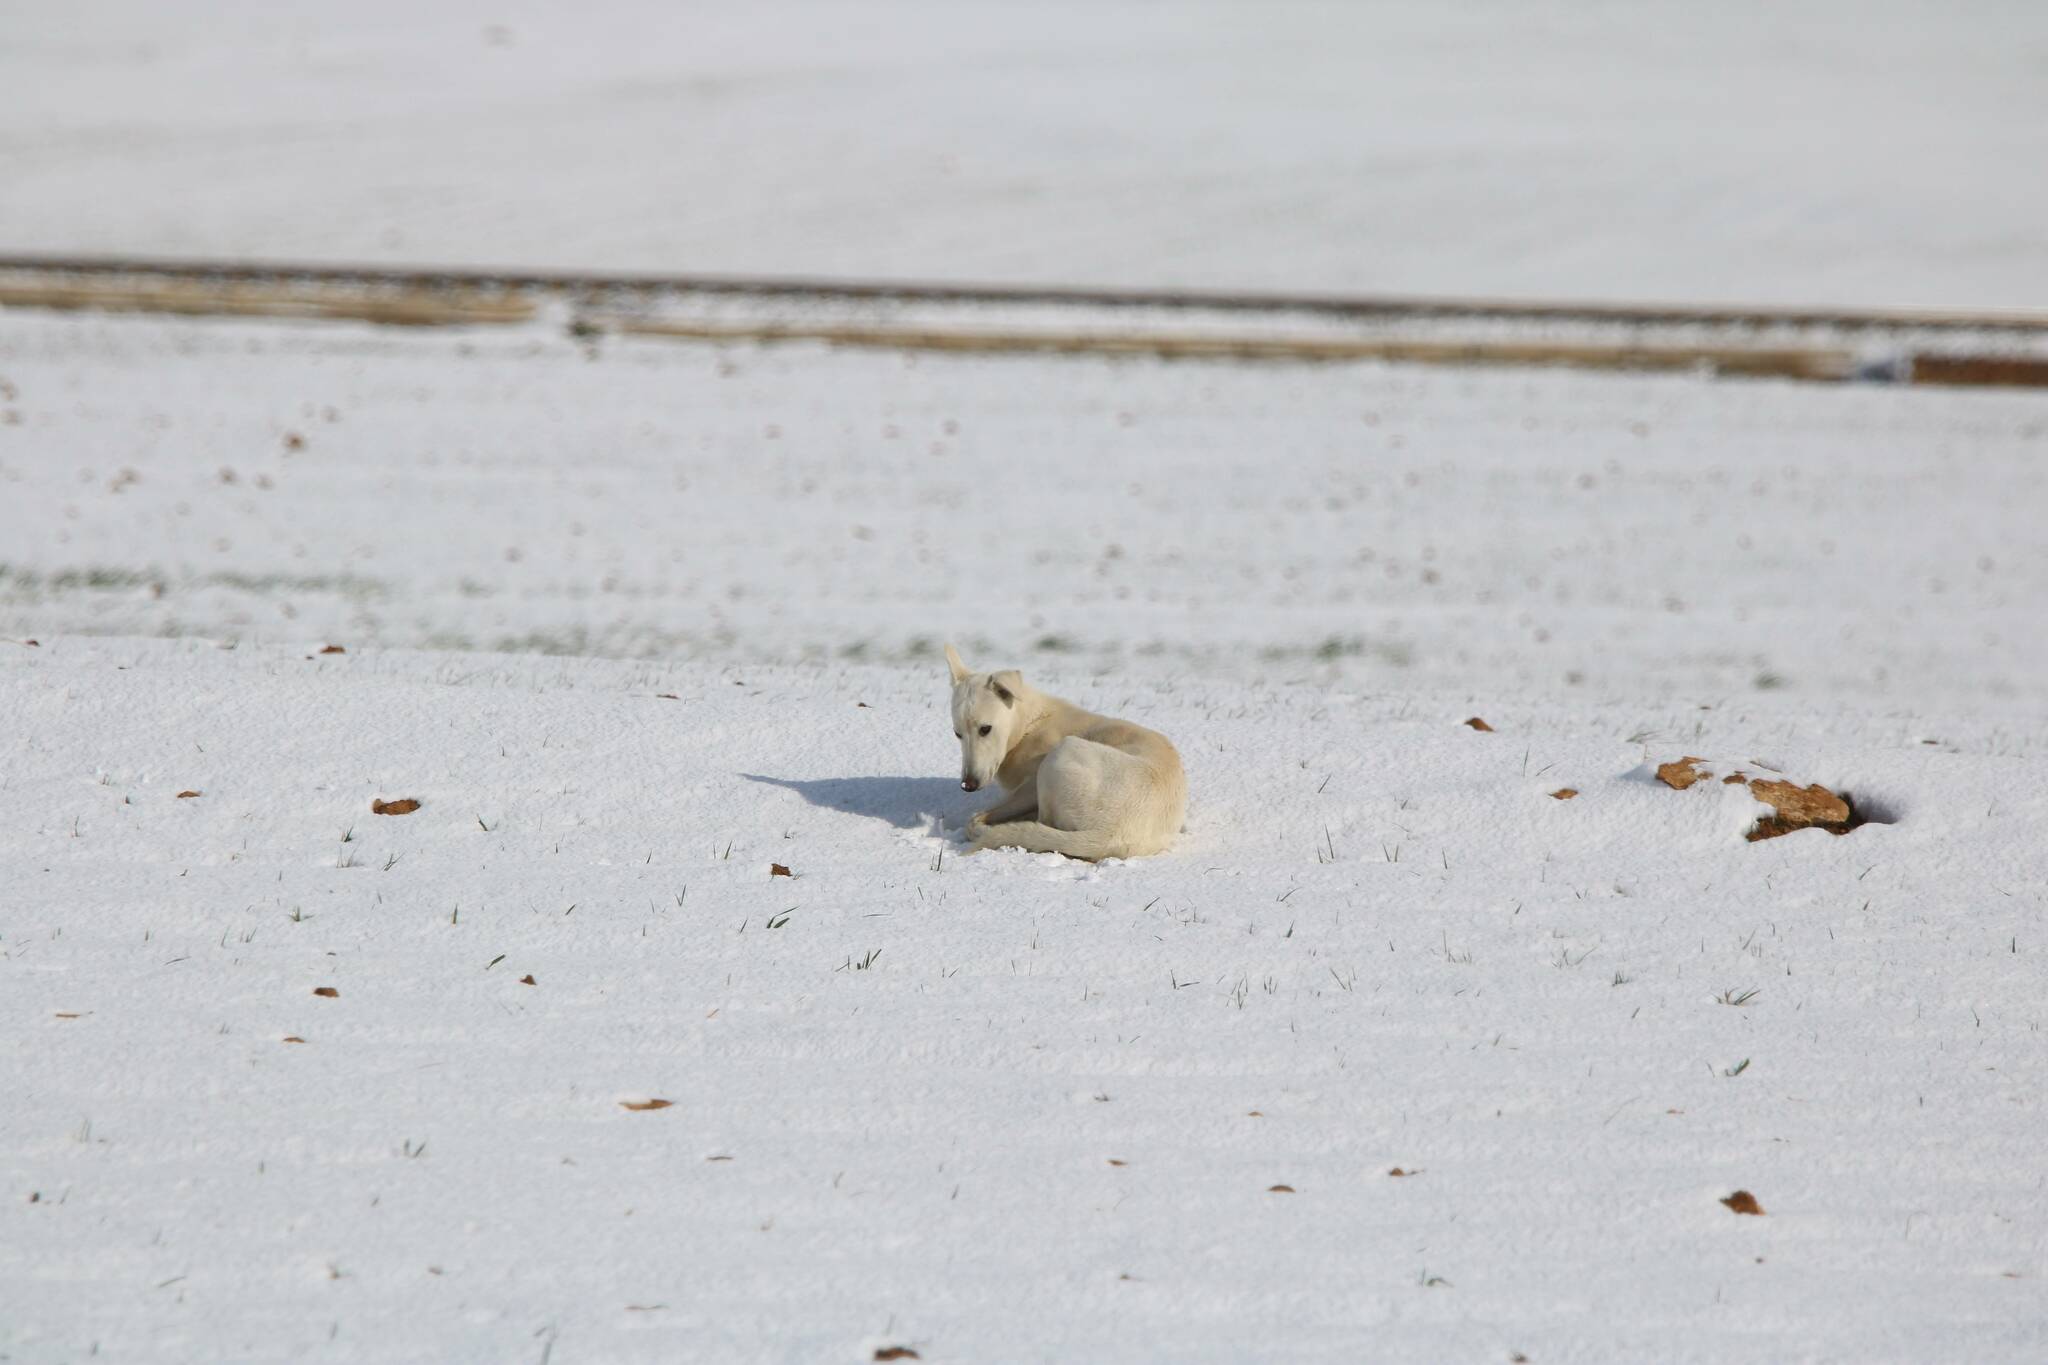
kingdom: Animalia
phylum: Chordata
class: Mammalia
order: Carnivora
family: Canidae
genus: Canis
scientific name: Canis lupus
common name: Gray wolf
